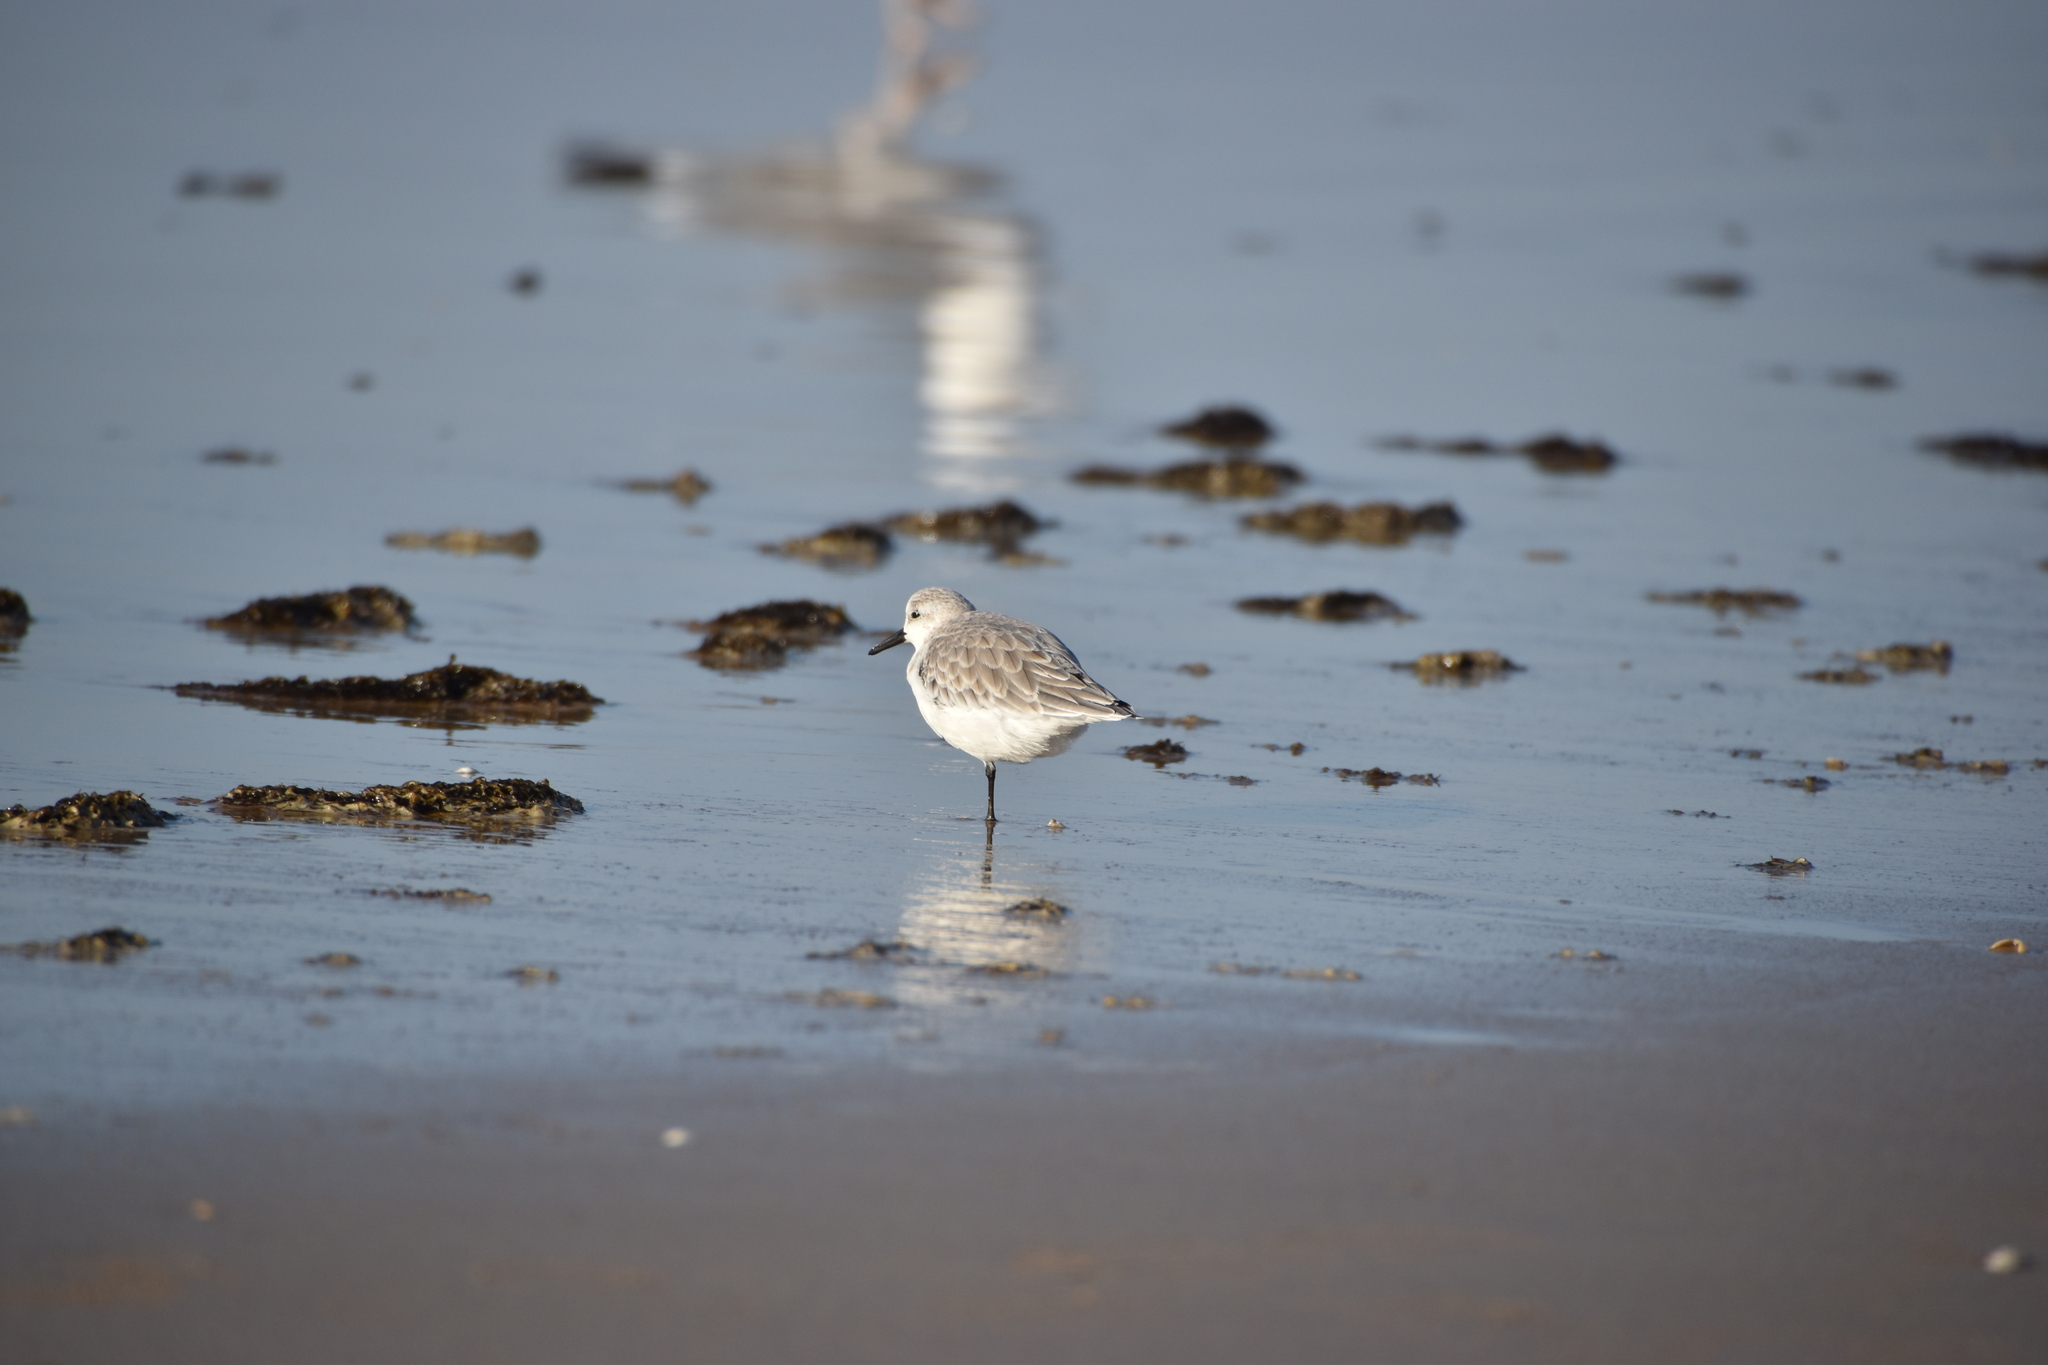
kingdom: Animalia
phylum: Chordata
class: Aves
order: Charadriiformes
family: Scolopacidae
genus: Calidris
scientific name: Calidris alba
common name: Sanderling
